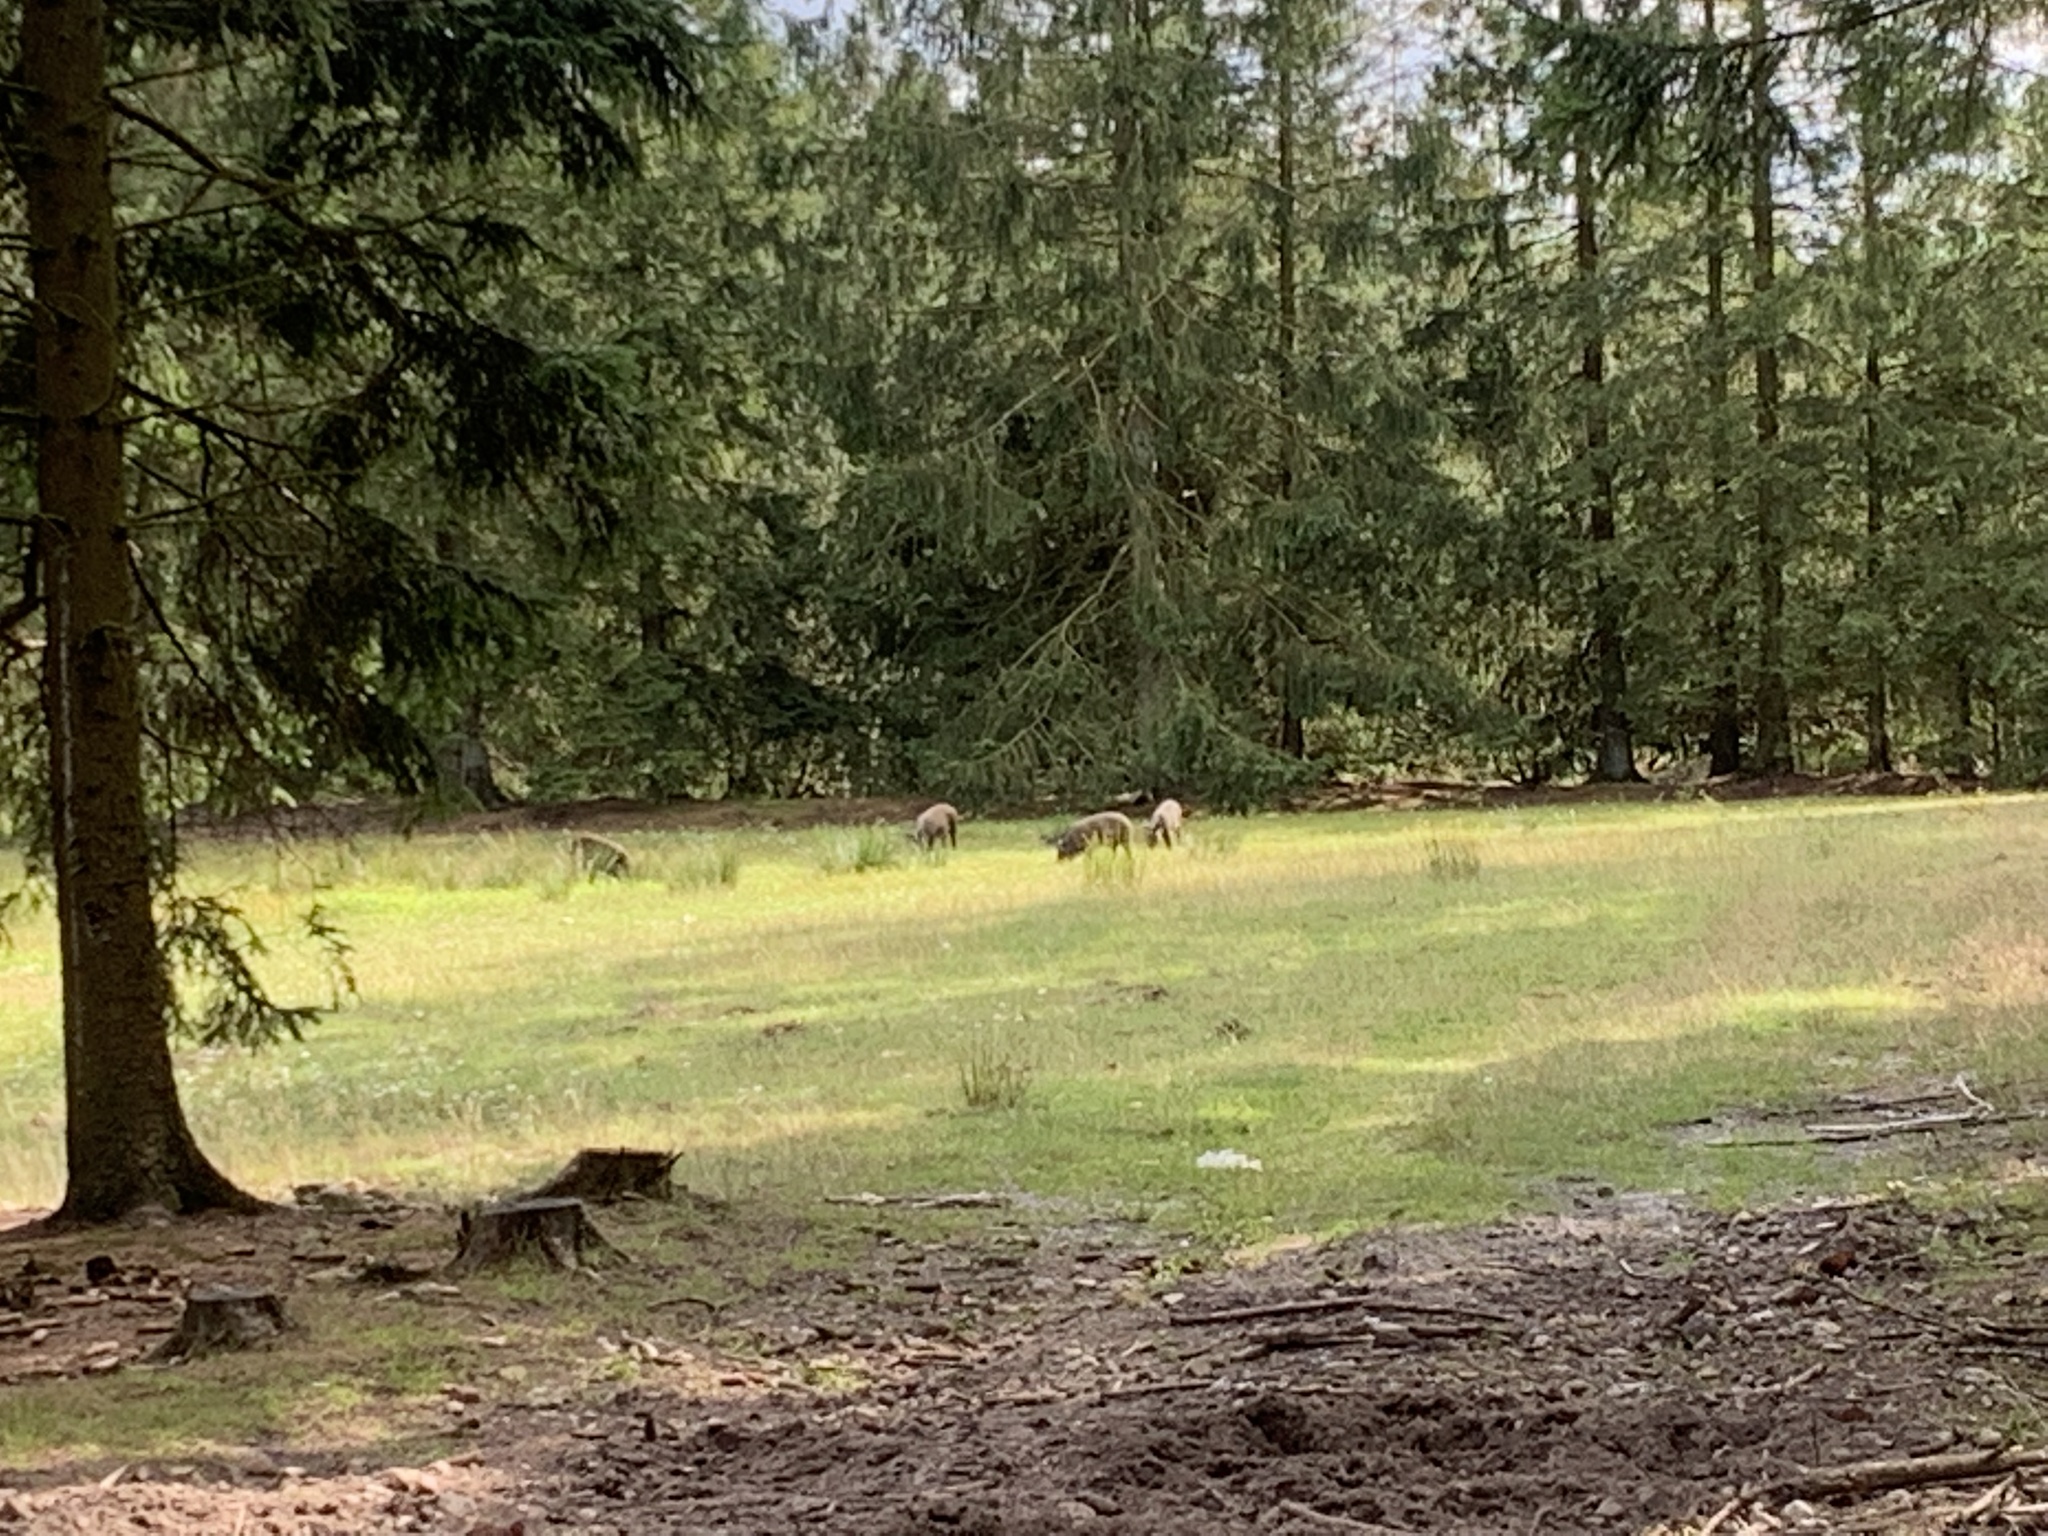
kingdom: Animalia
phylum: Chordata
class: Mammalia
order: Artiodactyla
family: Suidae
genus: Sus
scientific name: Sus scrofa
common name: Wild boar
